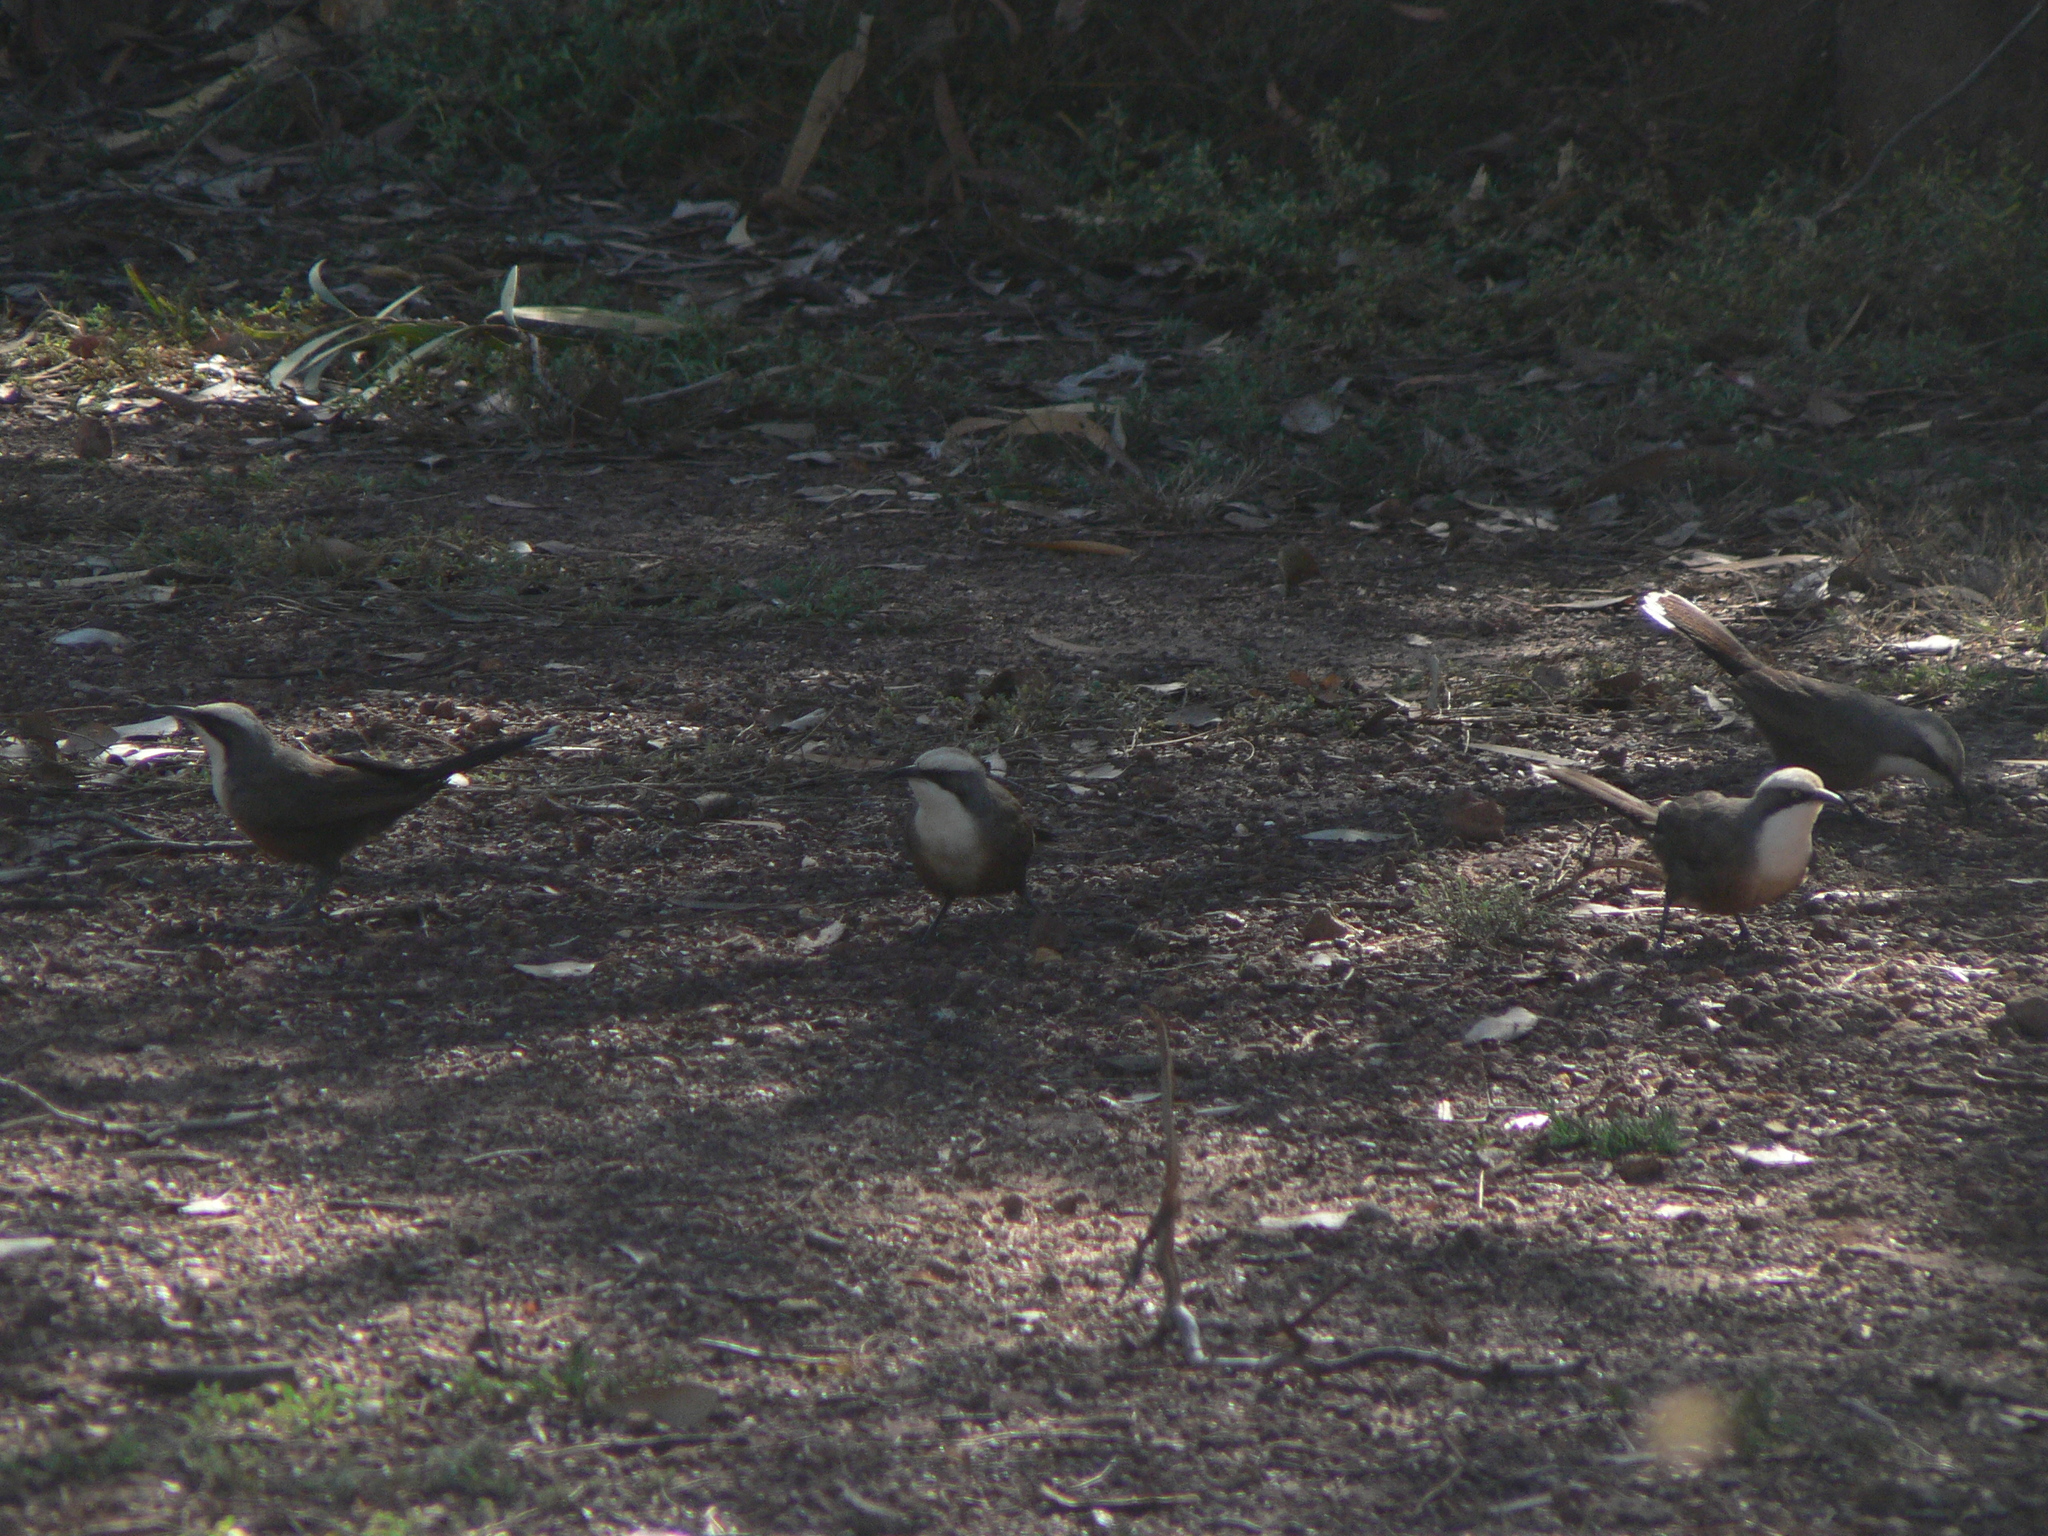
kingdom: Animalia
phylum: Chordata
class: Aves
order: Passeriformes
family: Pomatostomidae
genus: Pomatostomus
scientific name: Pomatostomus temporalis
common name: Grey-crowned babbler
